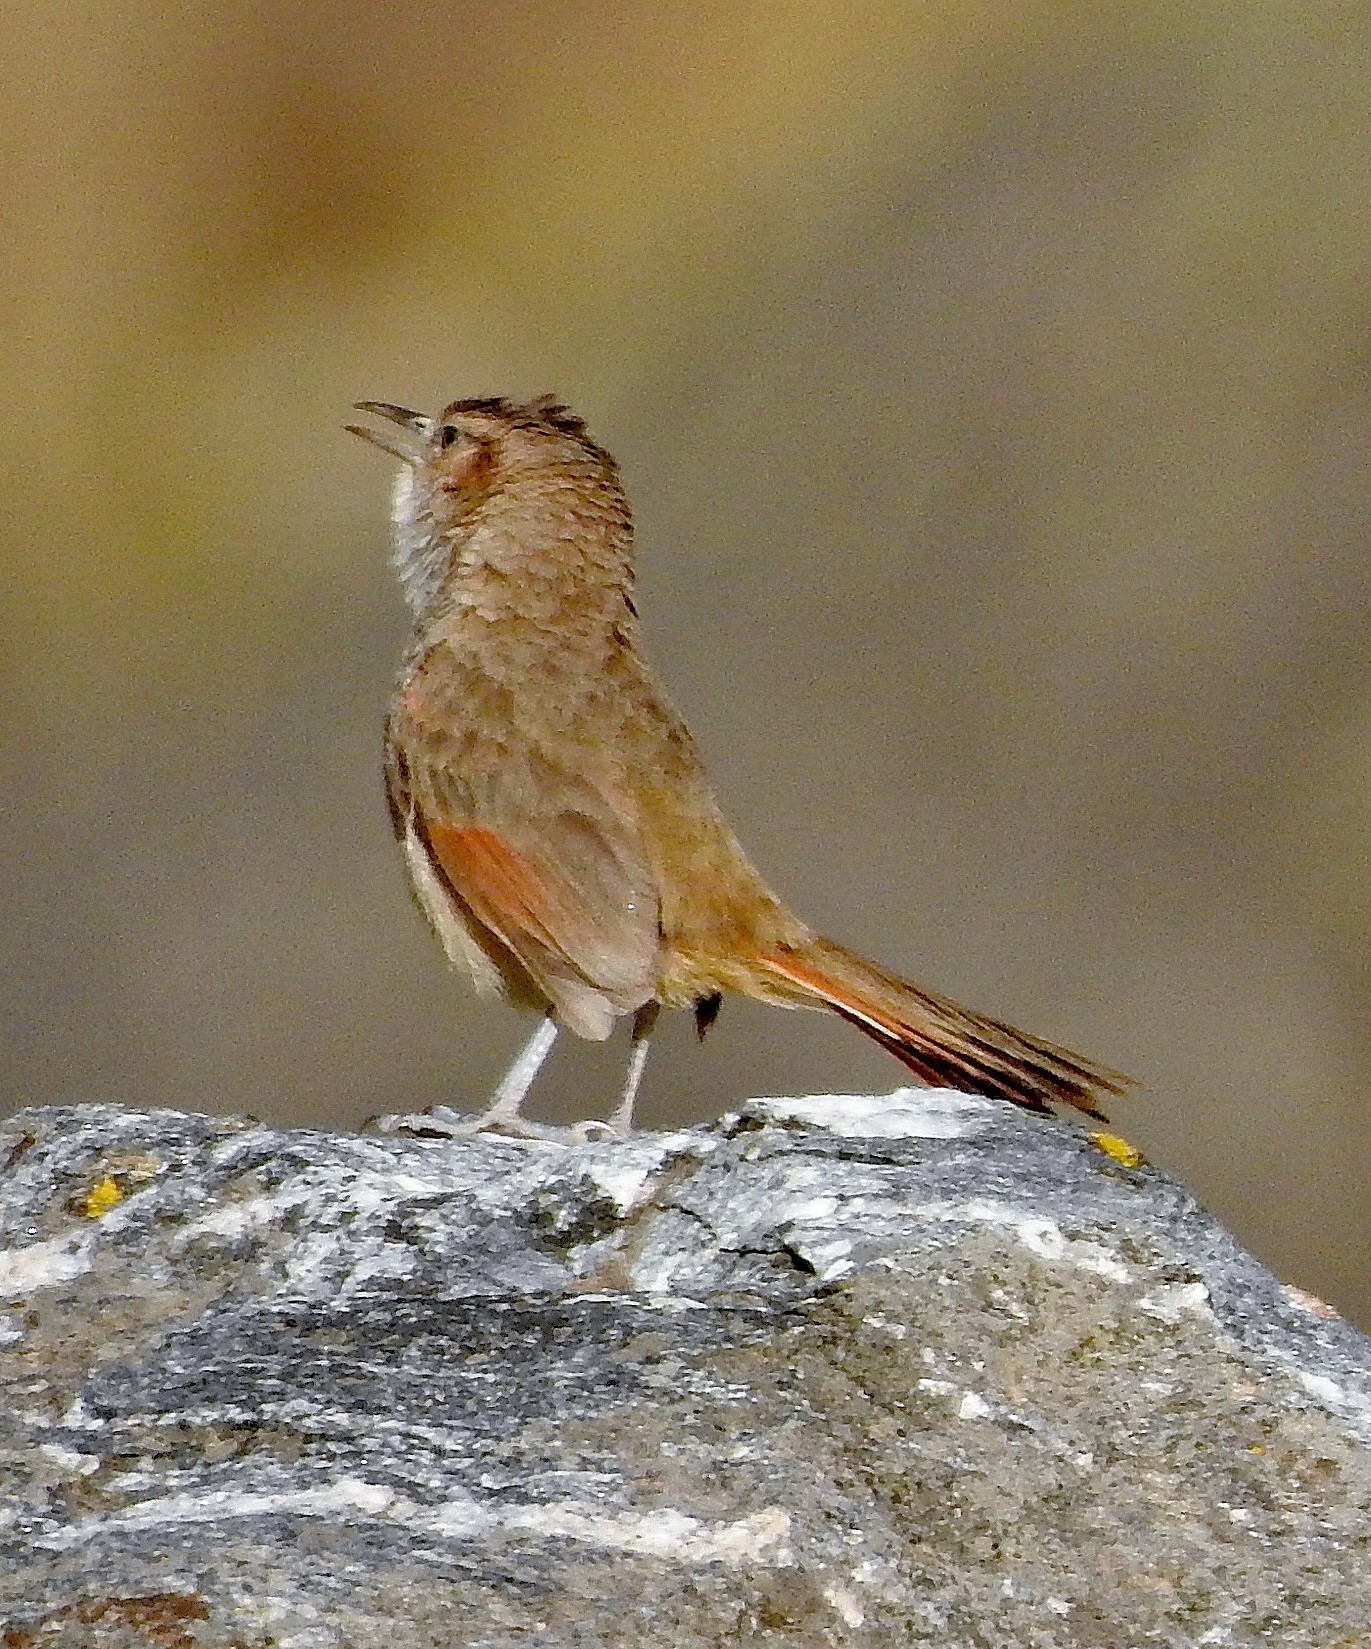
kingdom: Animalia
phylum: Chordata
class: Aves
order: Passeriformes
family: Furnariidae
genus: Phacellodomus
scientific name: Phacellodomus striaticeps
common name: Streak-fronted thornbird
